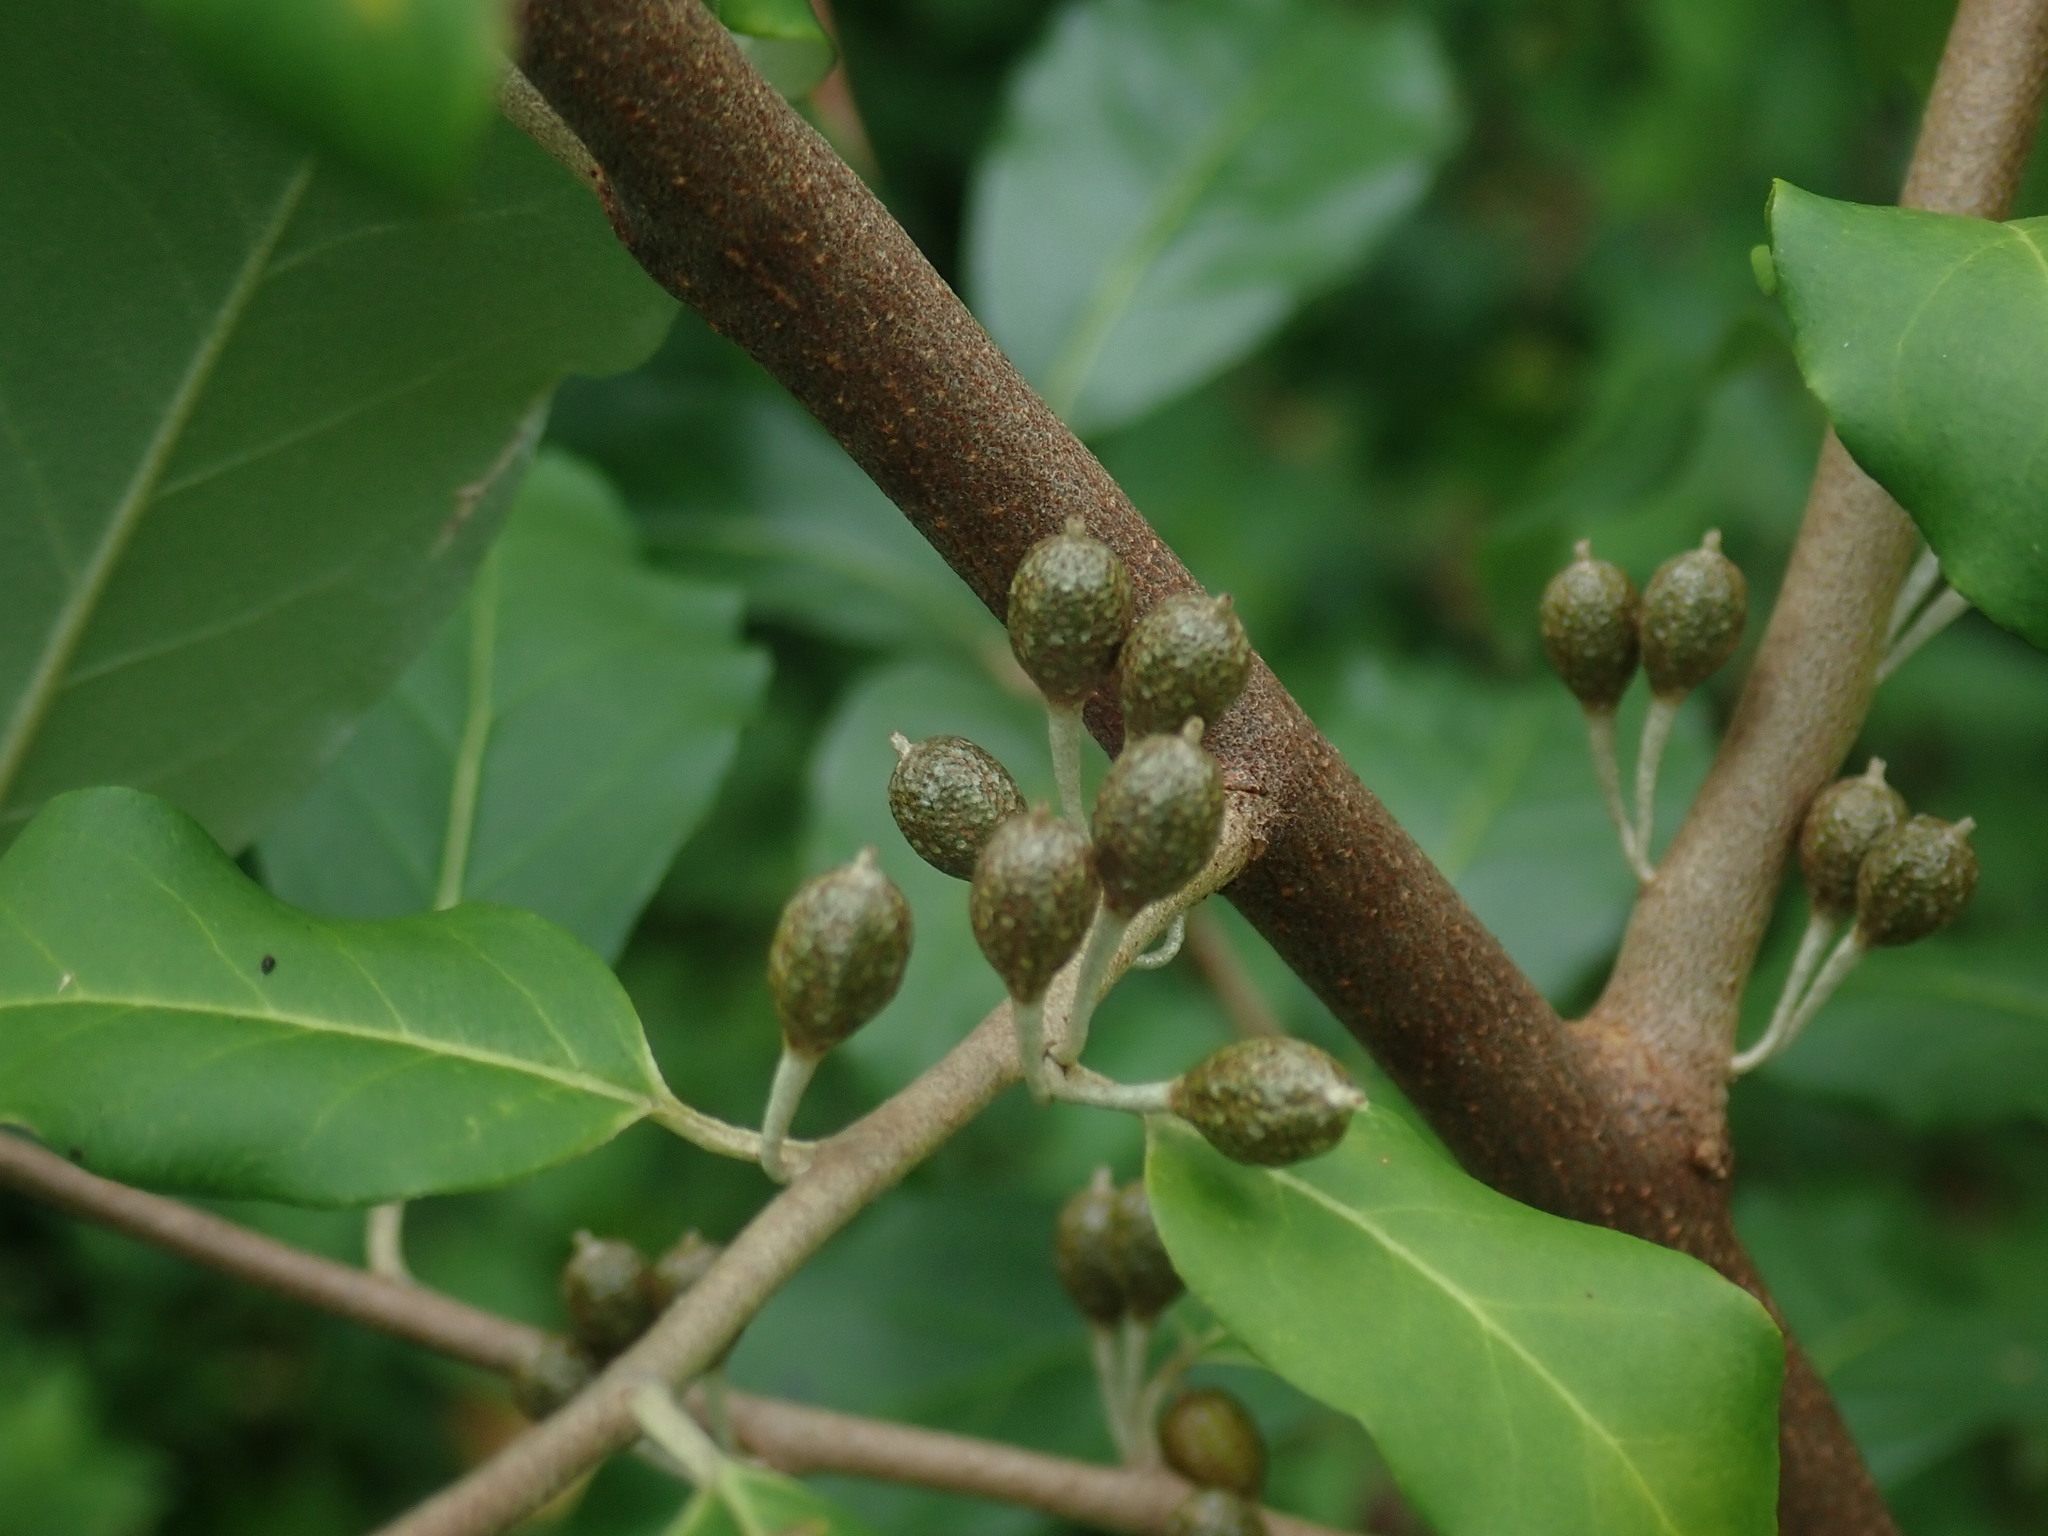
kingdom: Plantae
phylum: Tracheophyta
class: Magnoliopsida
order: Rosales
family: Elaeagnaceae
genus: Elaeagnus
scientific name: Elaeagnus umbellata
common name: Autumn olive
